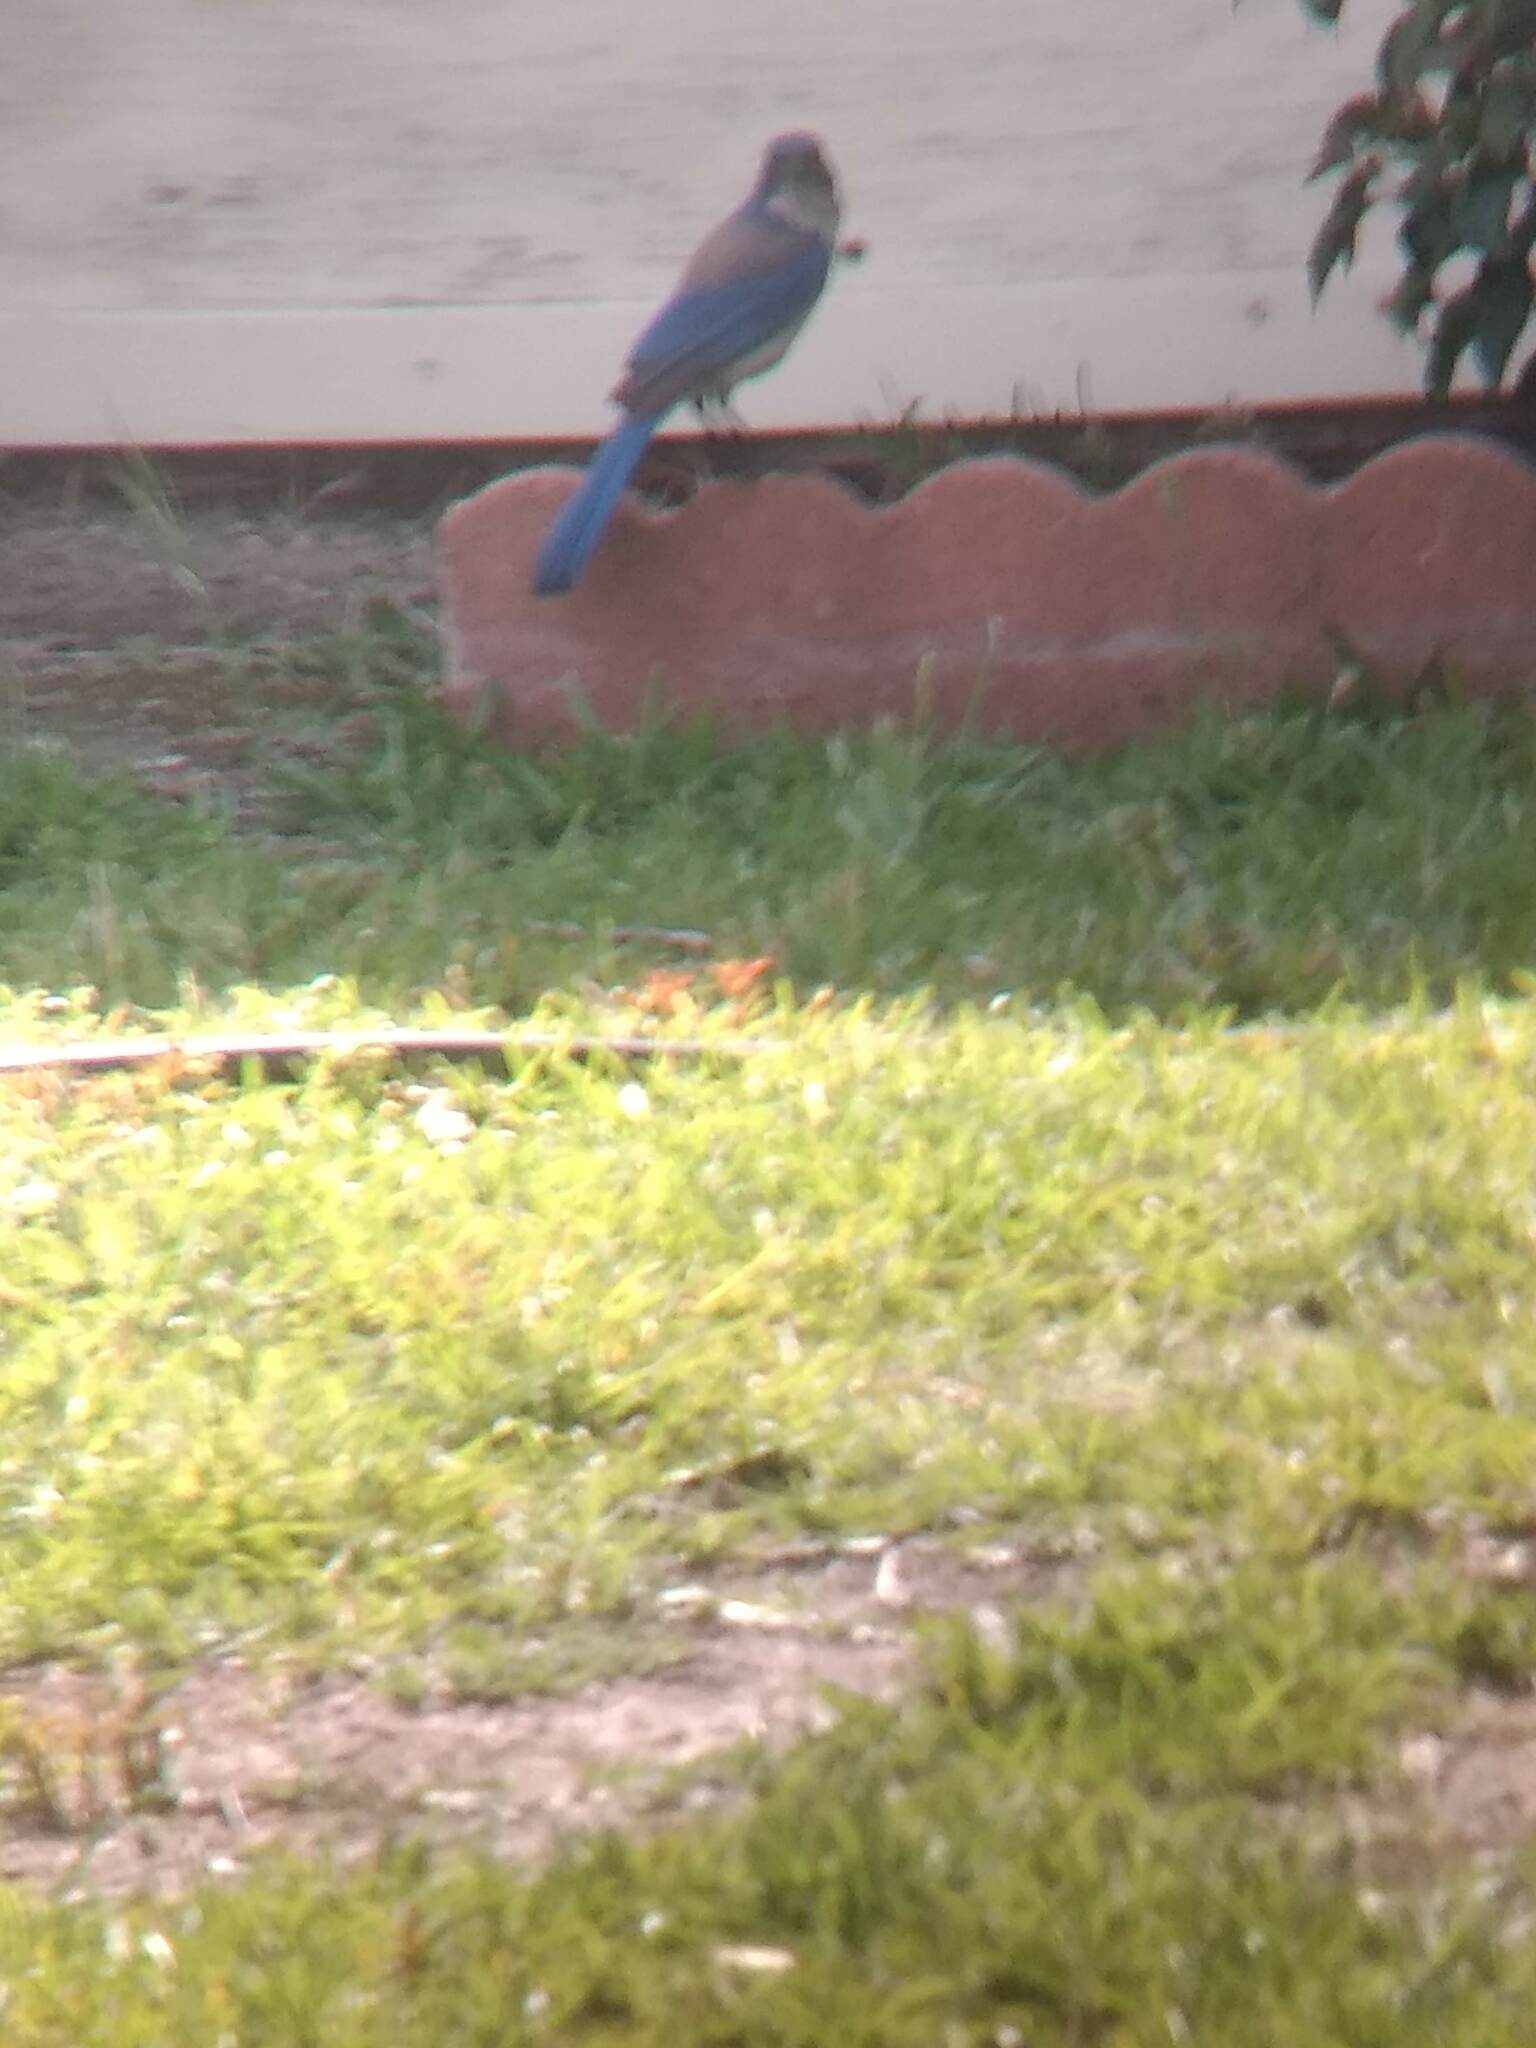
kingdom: Animalia
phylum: Chordata
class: Aves
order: Passeriformes
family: Corvidae
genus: Aphelocoma
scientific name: Aphelocoma californica
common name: California scrub-jay
